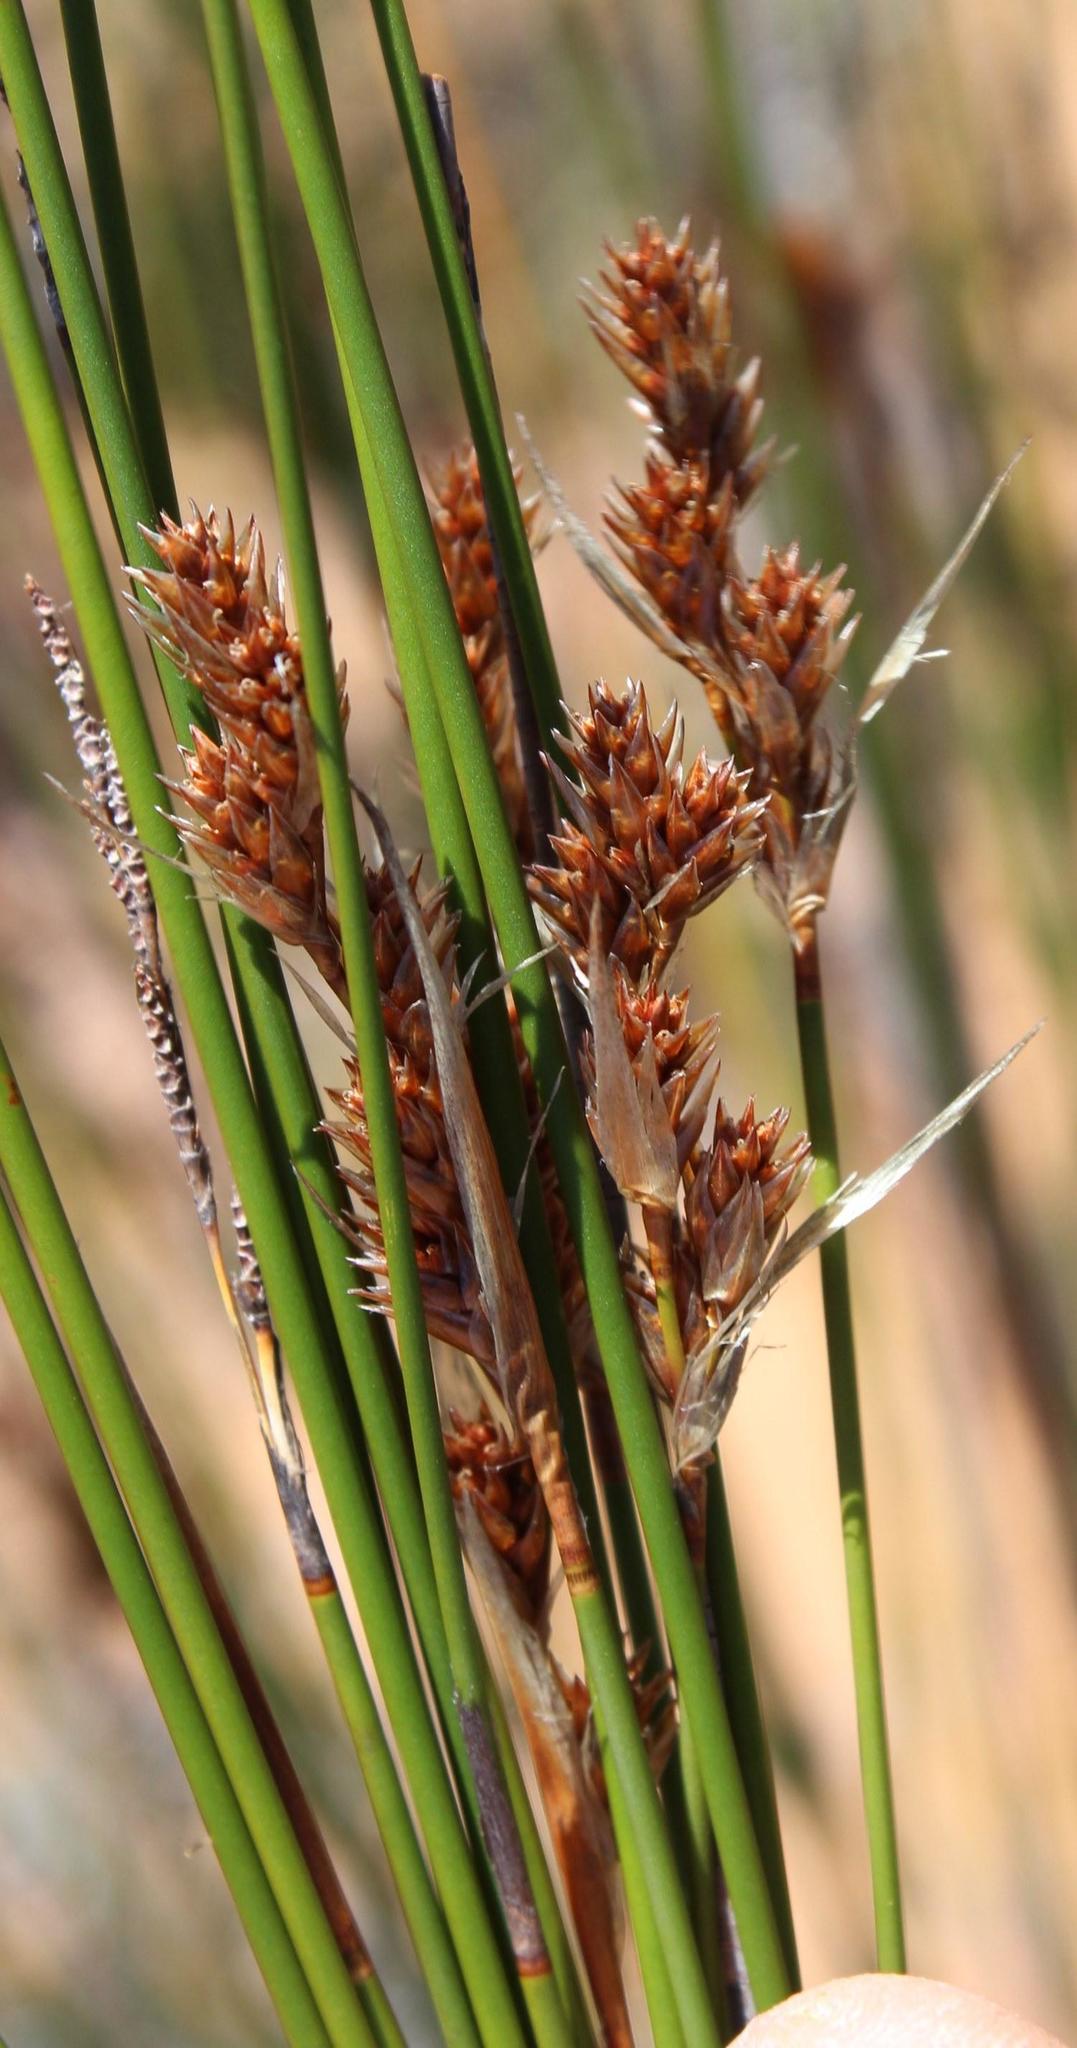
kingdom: Plantae
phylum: Tracheophyta
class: Liliopsida
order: Poales
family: Restionaceae
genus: Willdenowia
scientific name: Willdenowia incurvata
